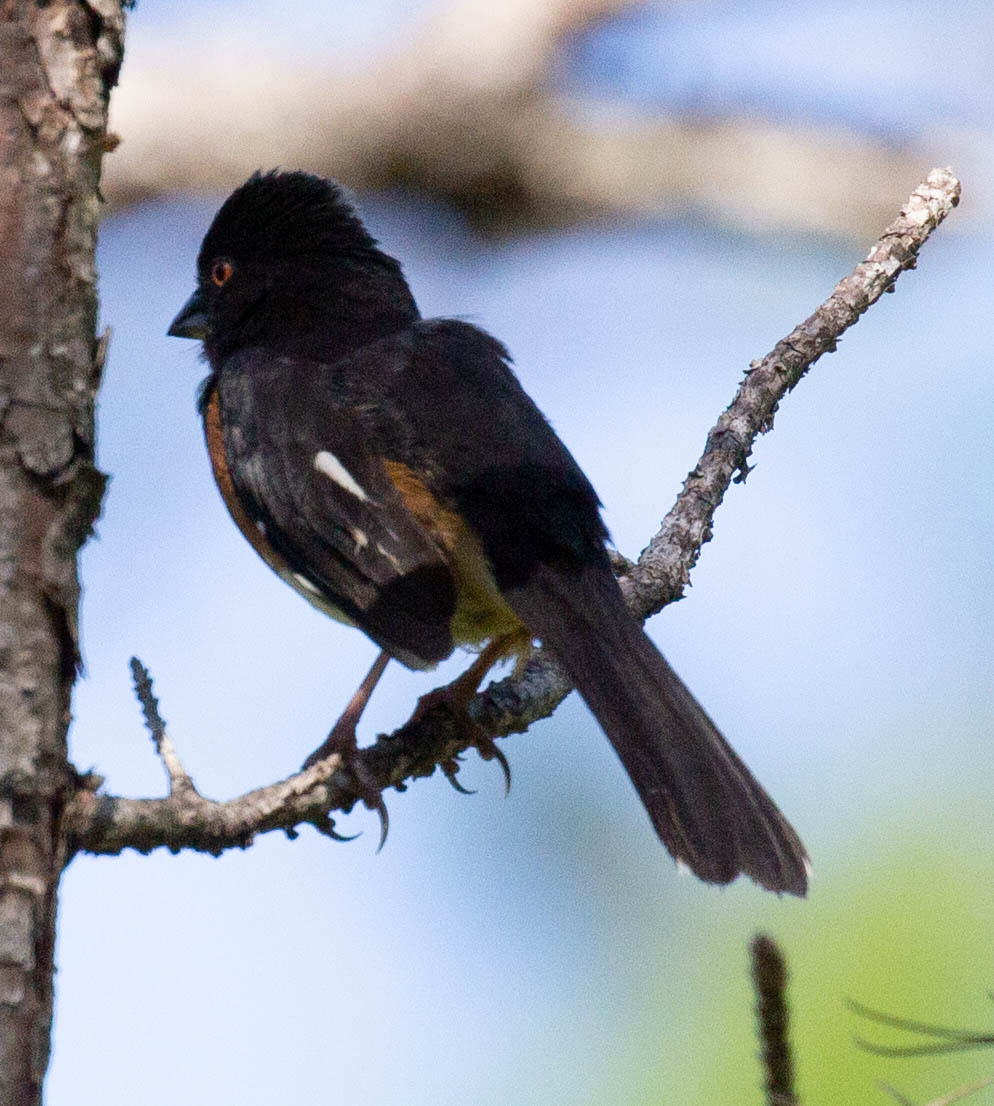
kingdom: Animalia
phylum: Chordata
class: Aves
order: Passeriformes
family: Passerellidae
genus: Pipilo
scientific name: Pipilo erythrophthalmus
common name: Eastern towhee
